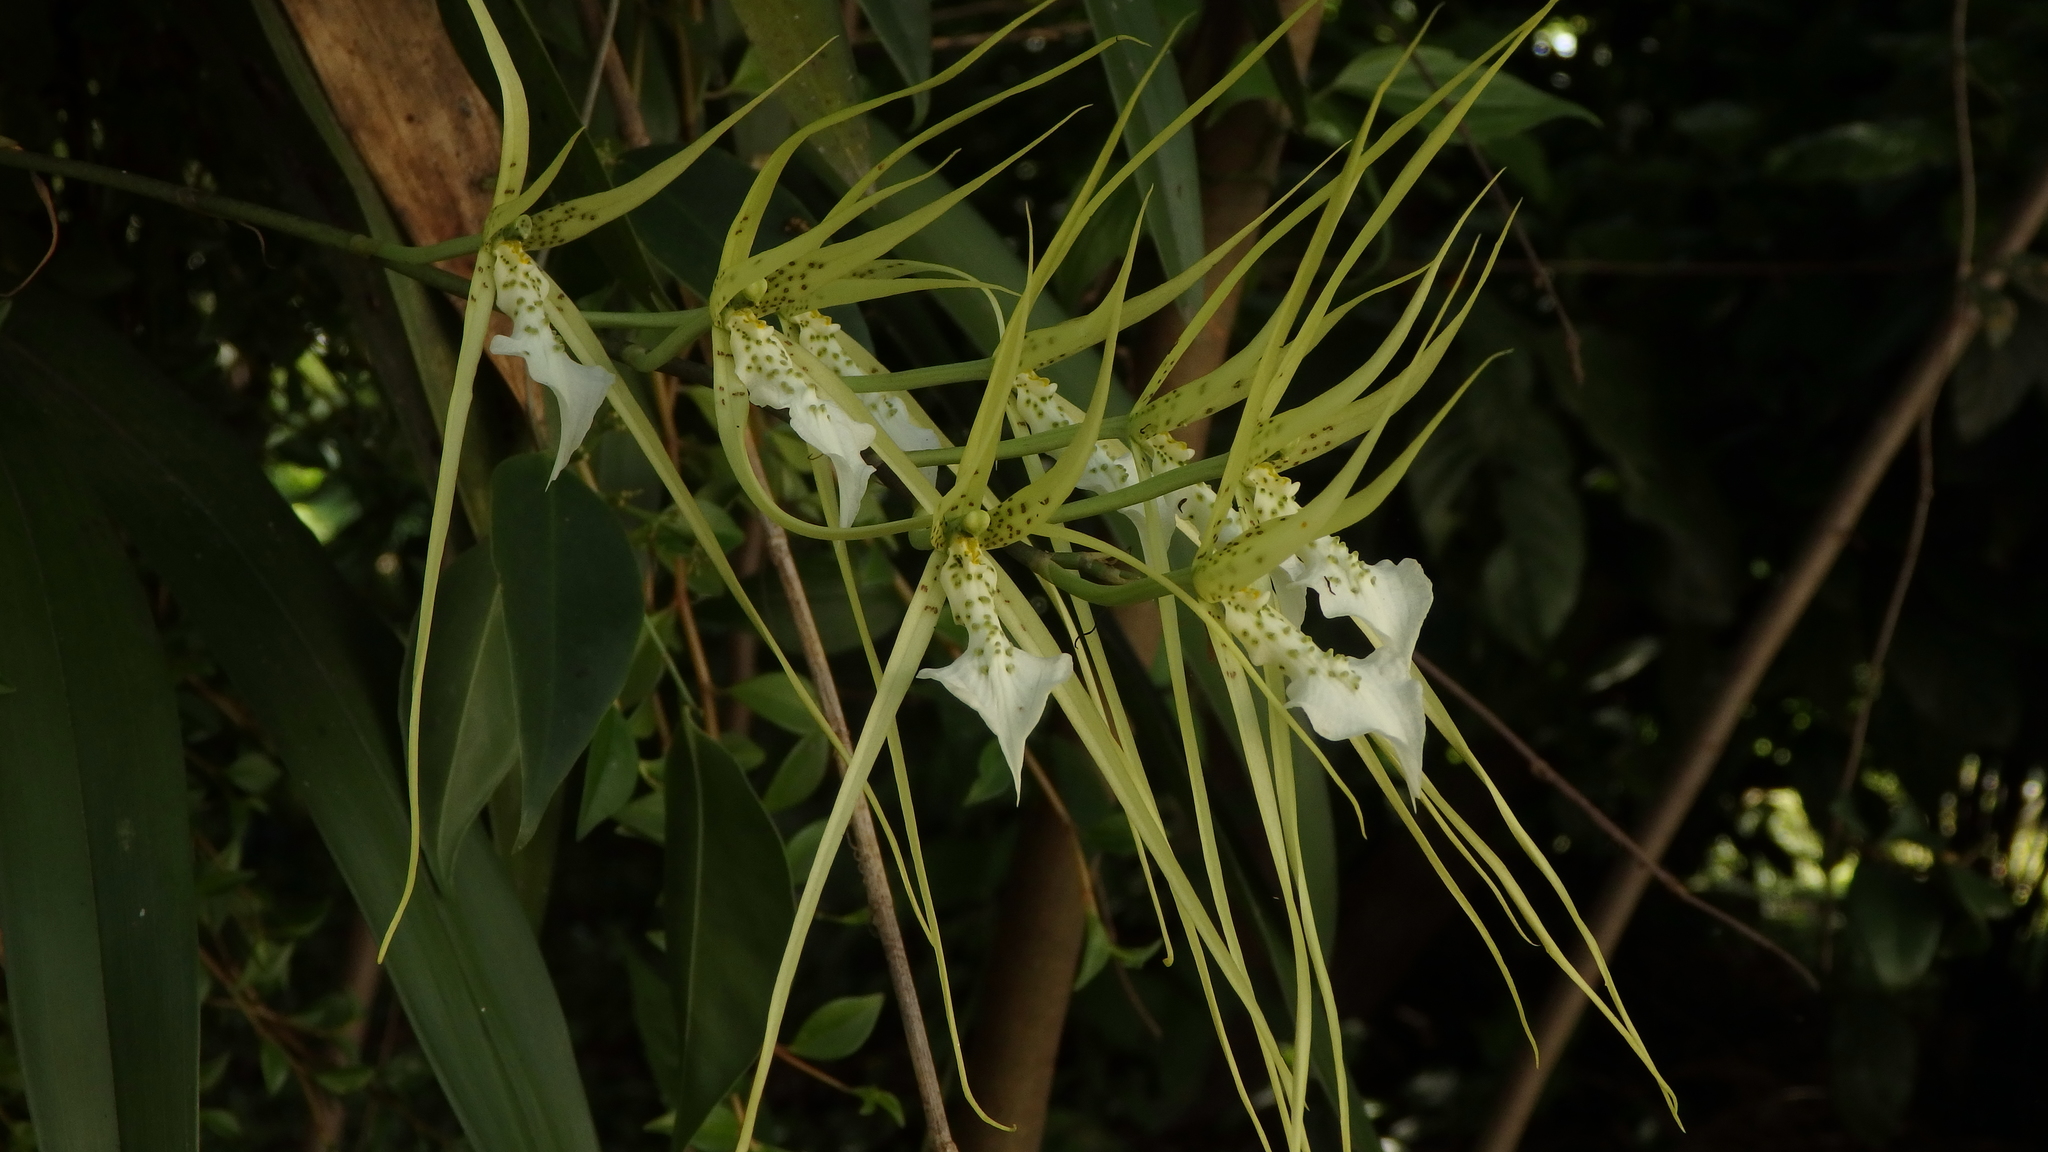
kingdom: Plantae
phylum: Tracheophyta
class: Liliopsida
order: Asparagales
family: Orchidaceae
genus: Brassia
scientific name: Brassia verrucosa
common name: Warty brassia
